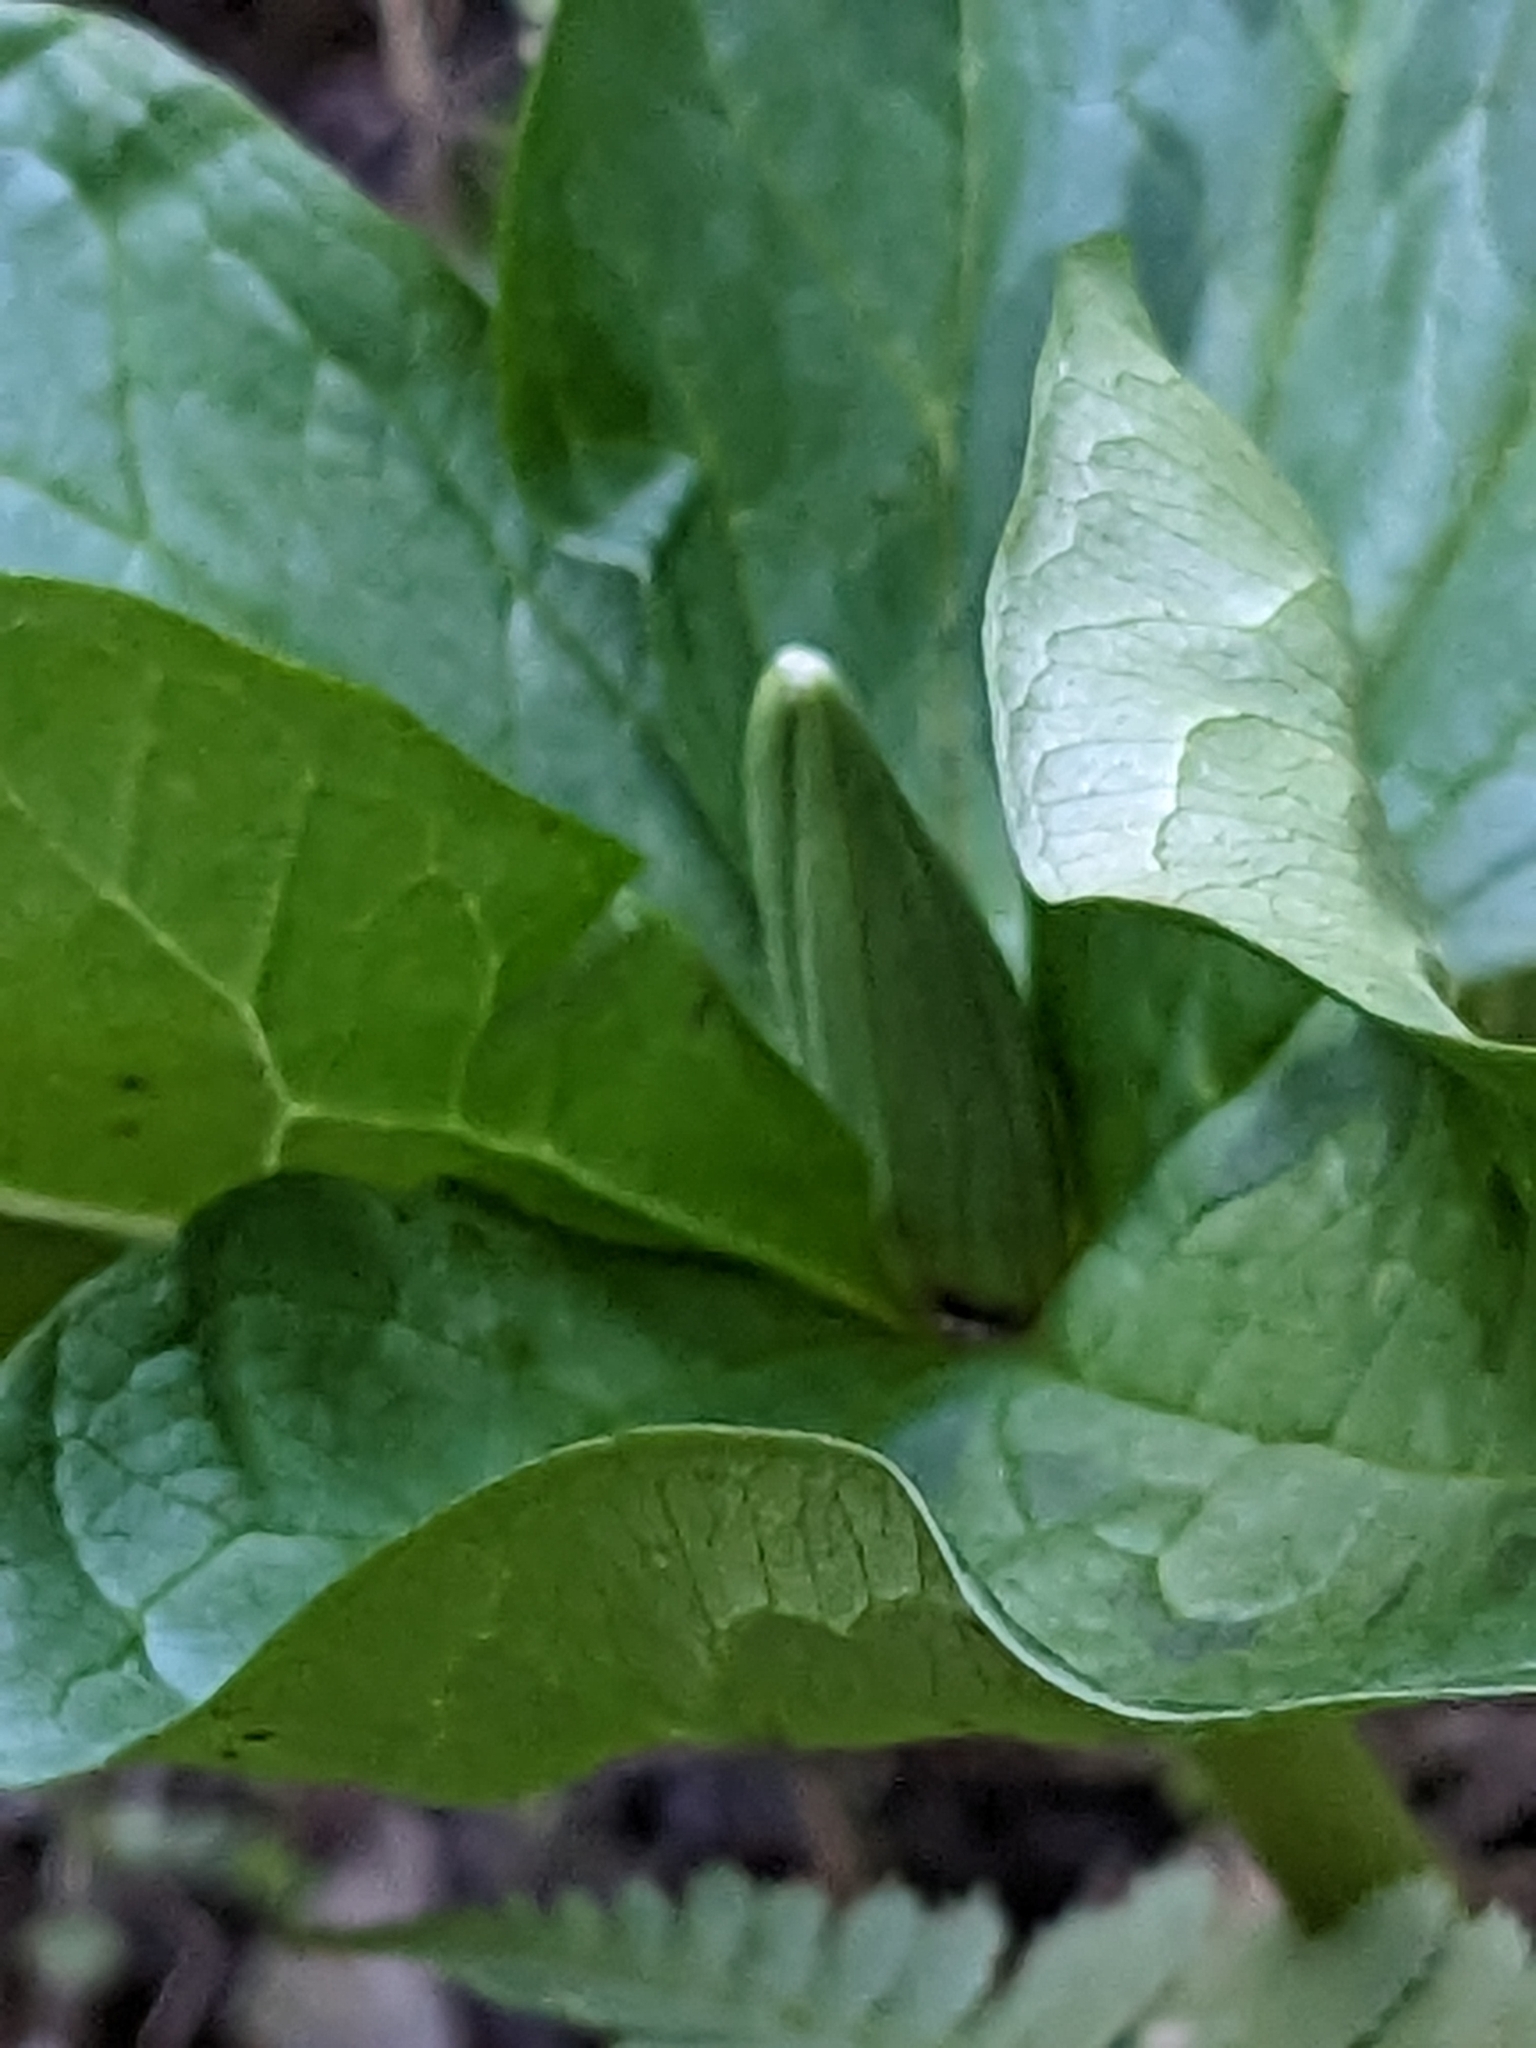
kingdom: Plantae
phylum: Tracheophyta
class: Liliopsida
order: Liliales
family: Melanthiaceae
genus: Trillium
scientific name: Trillium chloropetalum
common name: Giant trillium
